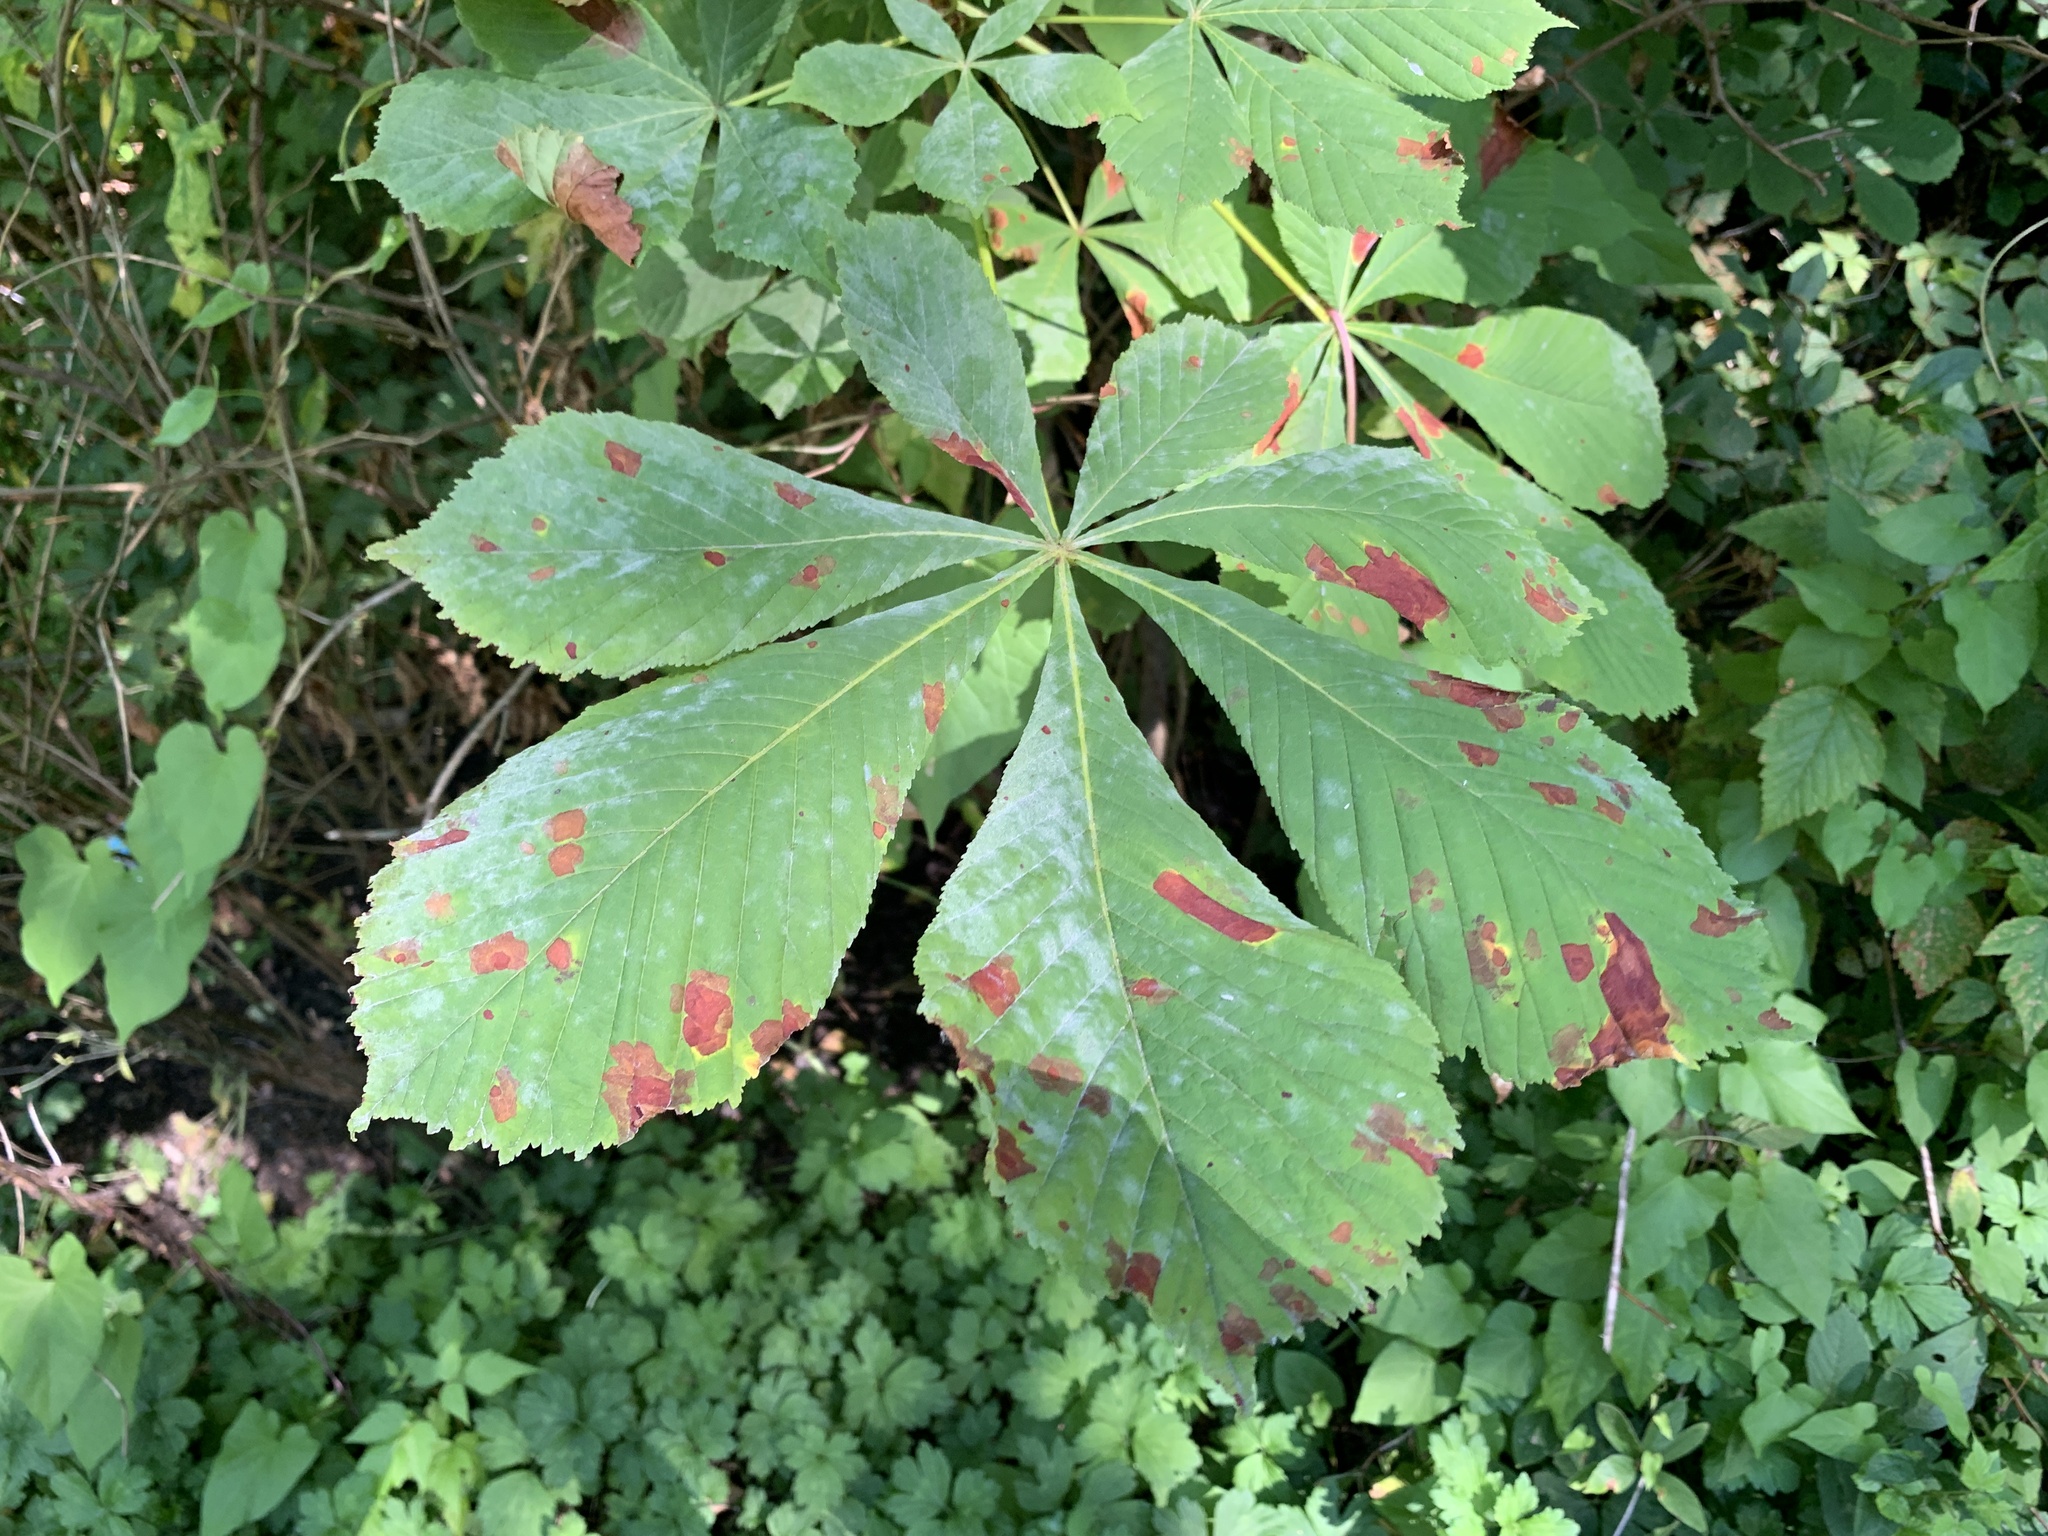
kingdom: Plantae
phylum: Tracheophyta
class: Magnoliopsida
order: Sapindales
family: Sapindaceae
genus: Aesculus
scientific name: Aesculus hippocastanum
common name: Horse-chestnut
